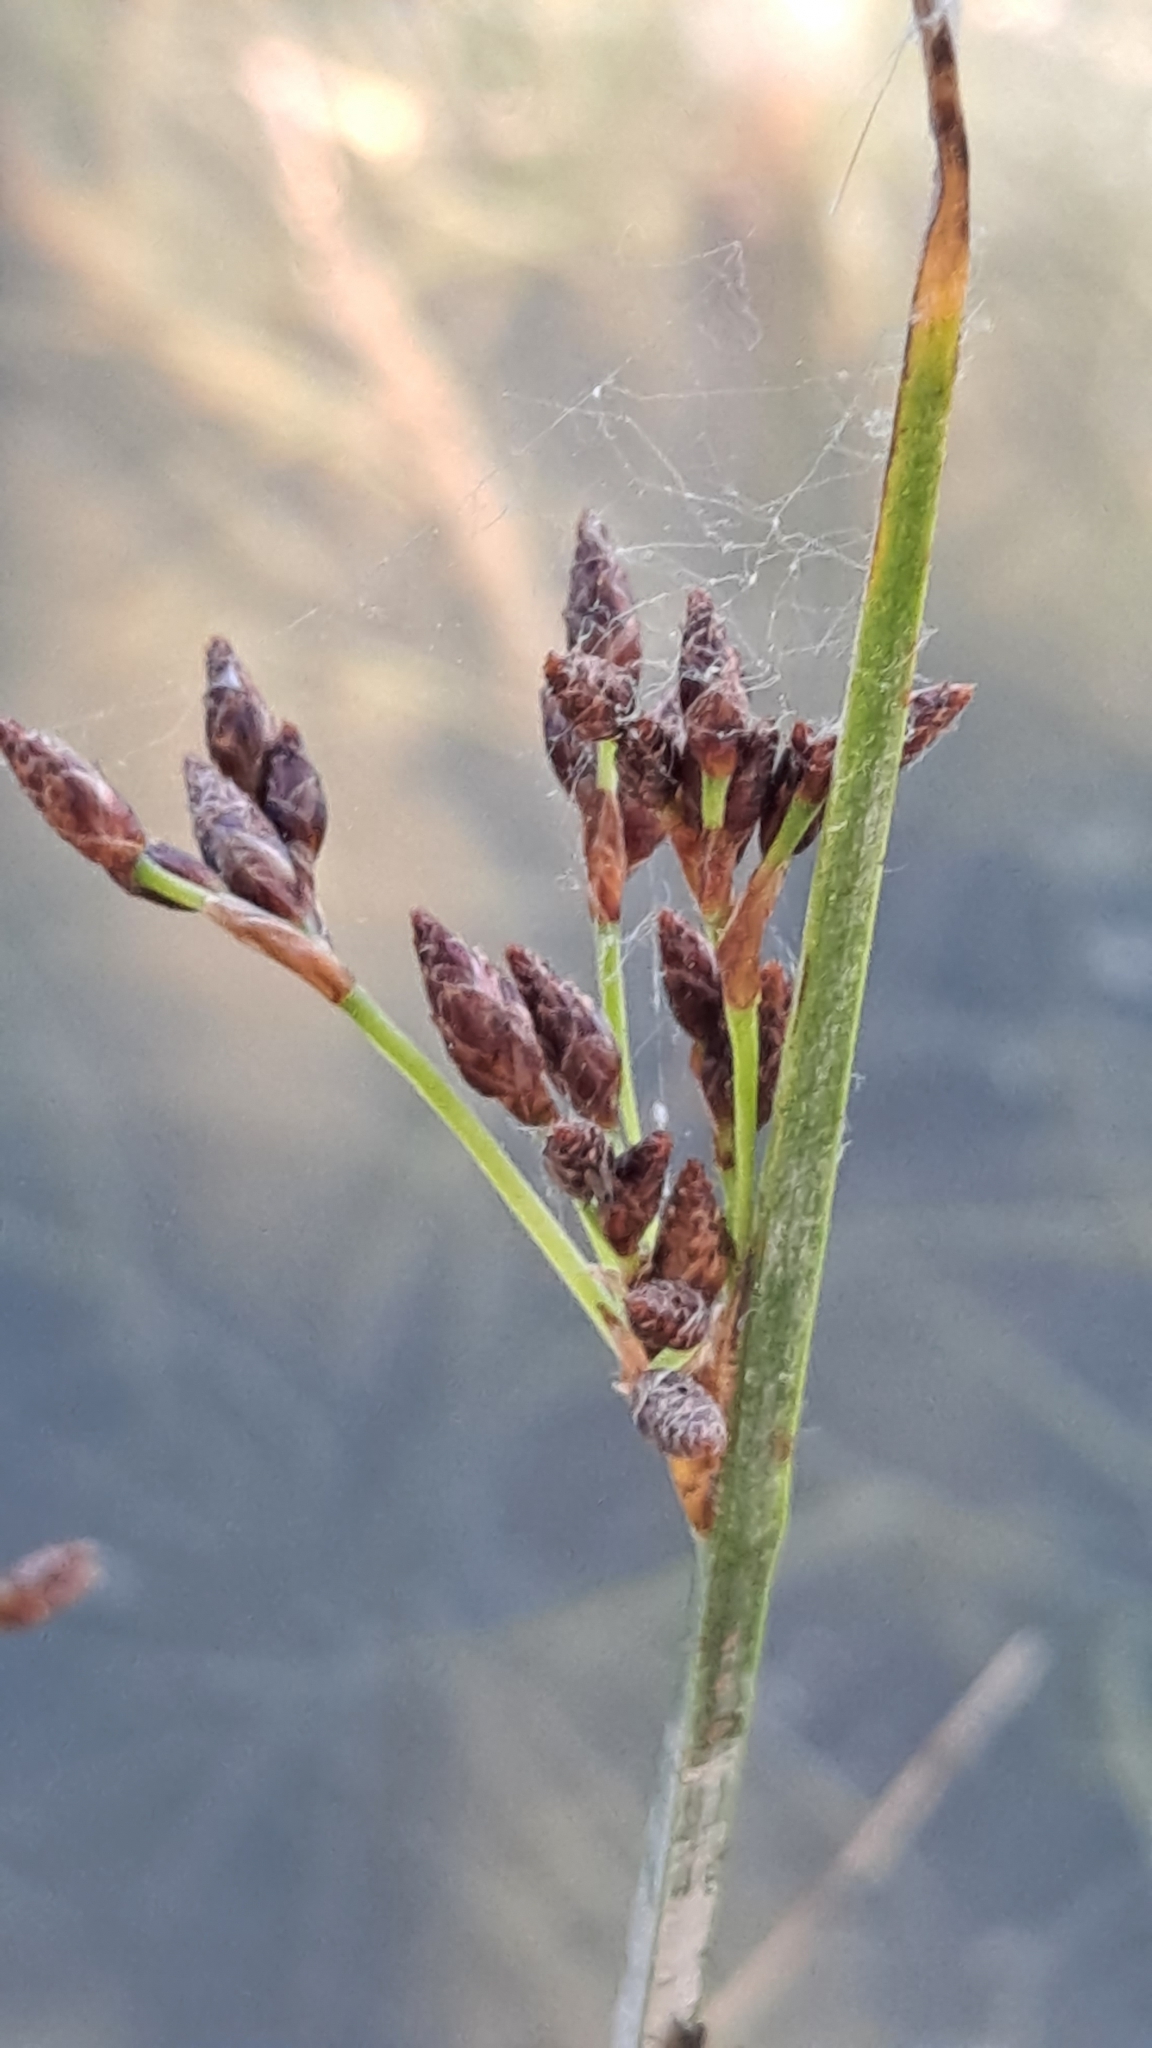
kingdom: Plantae
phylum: Tracheophyta
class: Liliopsida
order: Poales
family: Cyperaceae
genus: Schoenoplectus
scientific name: Schoenoplectus litoralis
